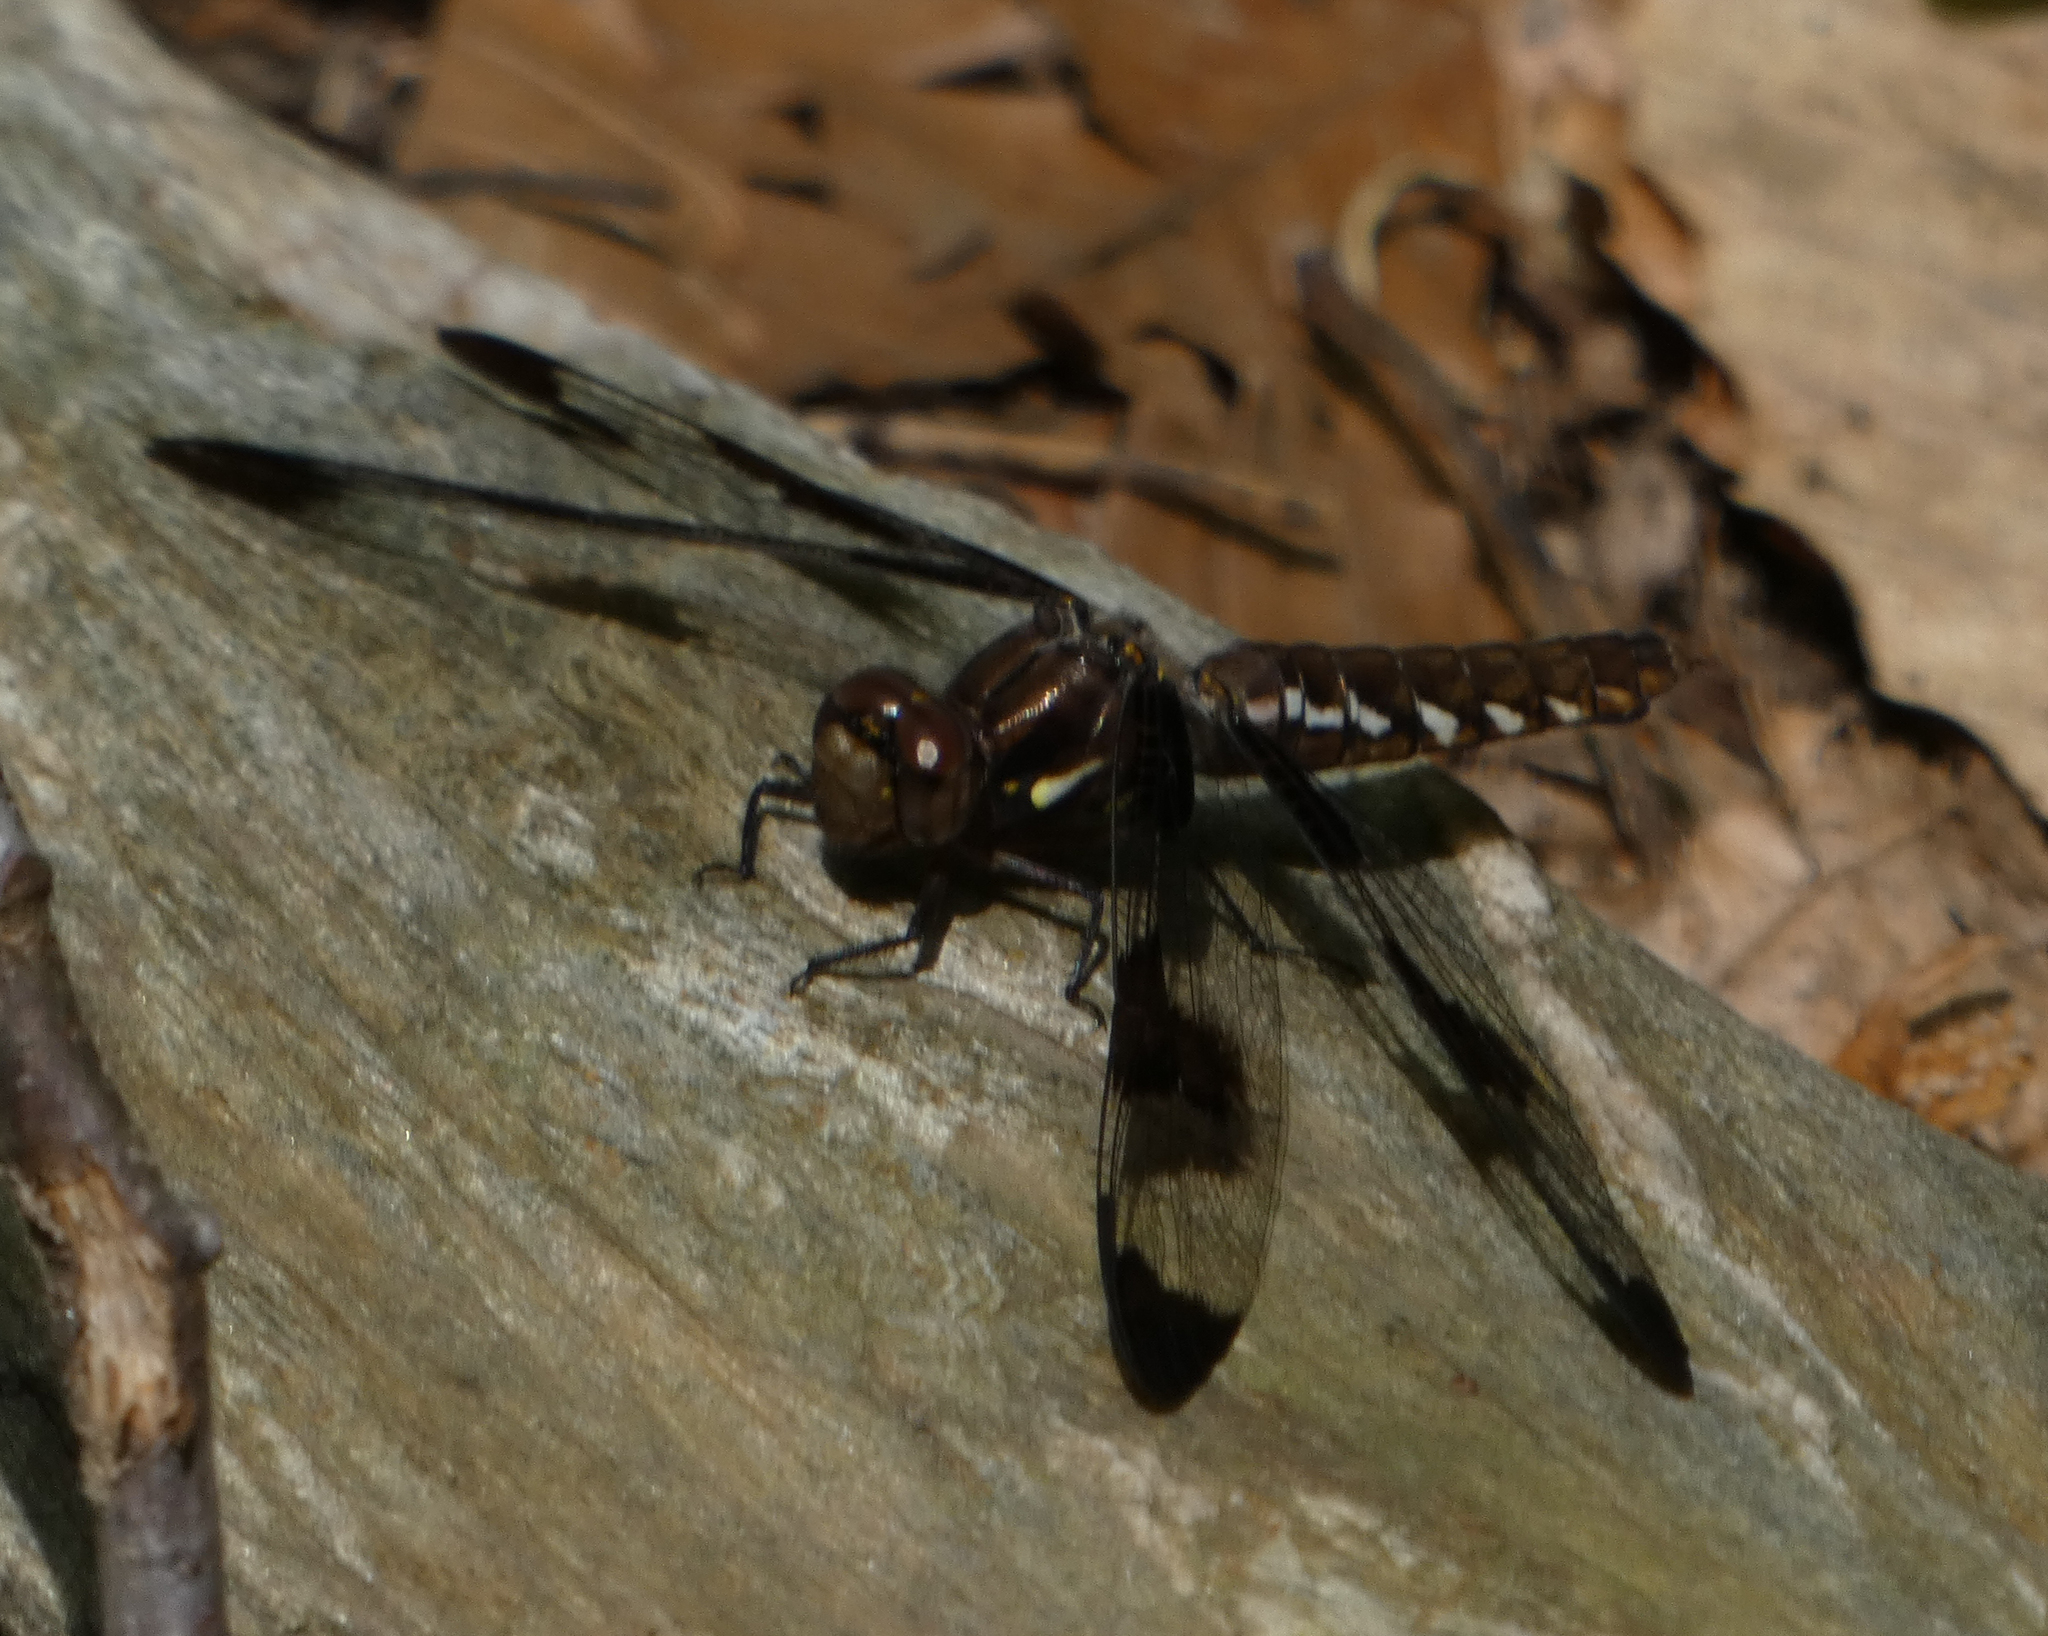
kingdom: Animalia
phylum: Arthropoda
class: Insecta
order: Odonata
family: Libellulidae
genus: Plathemis
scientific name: Plathemis lydia
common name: Common whitetail
